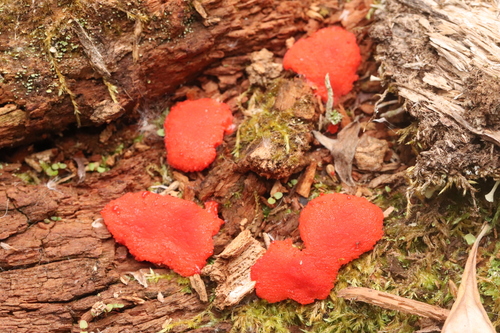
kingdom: Protozoa
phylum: Mycetozoa
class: Myxomycetes
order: Cribrariales
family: Tubiferaceae
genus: Tubifera
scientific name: Tubifera ferruginosa
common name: Red raspberry slime mold
